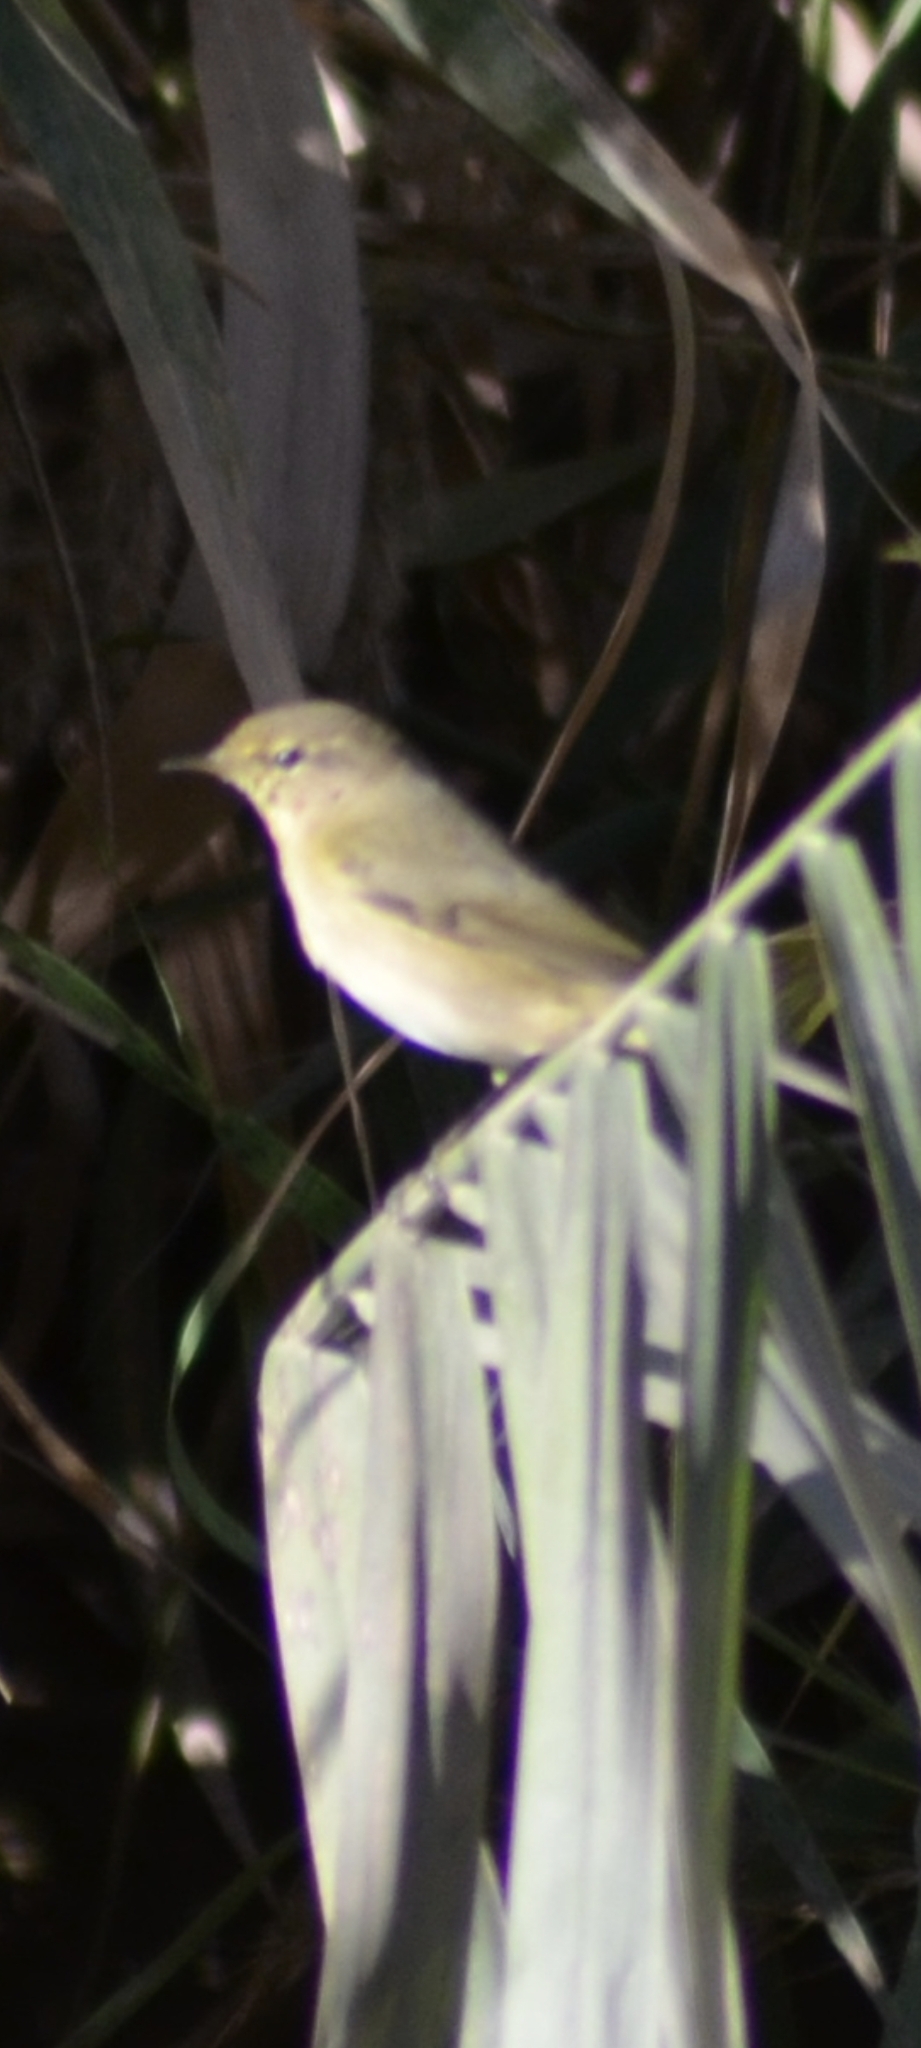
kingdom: Animalia
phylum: Chordata
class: Aves
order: Passeriformes
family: Phylloscopidae
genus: Phylloscopus
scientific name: Phylloscopus collybita
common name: Common chiffchaff
